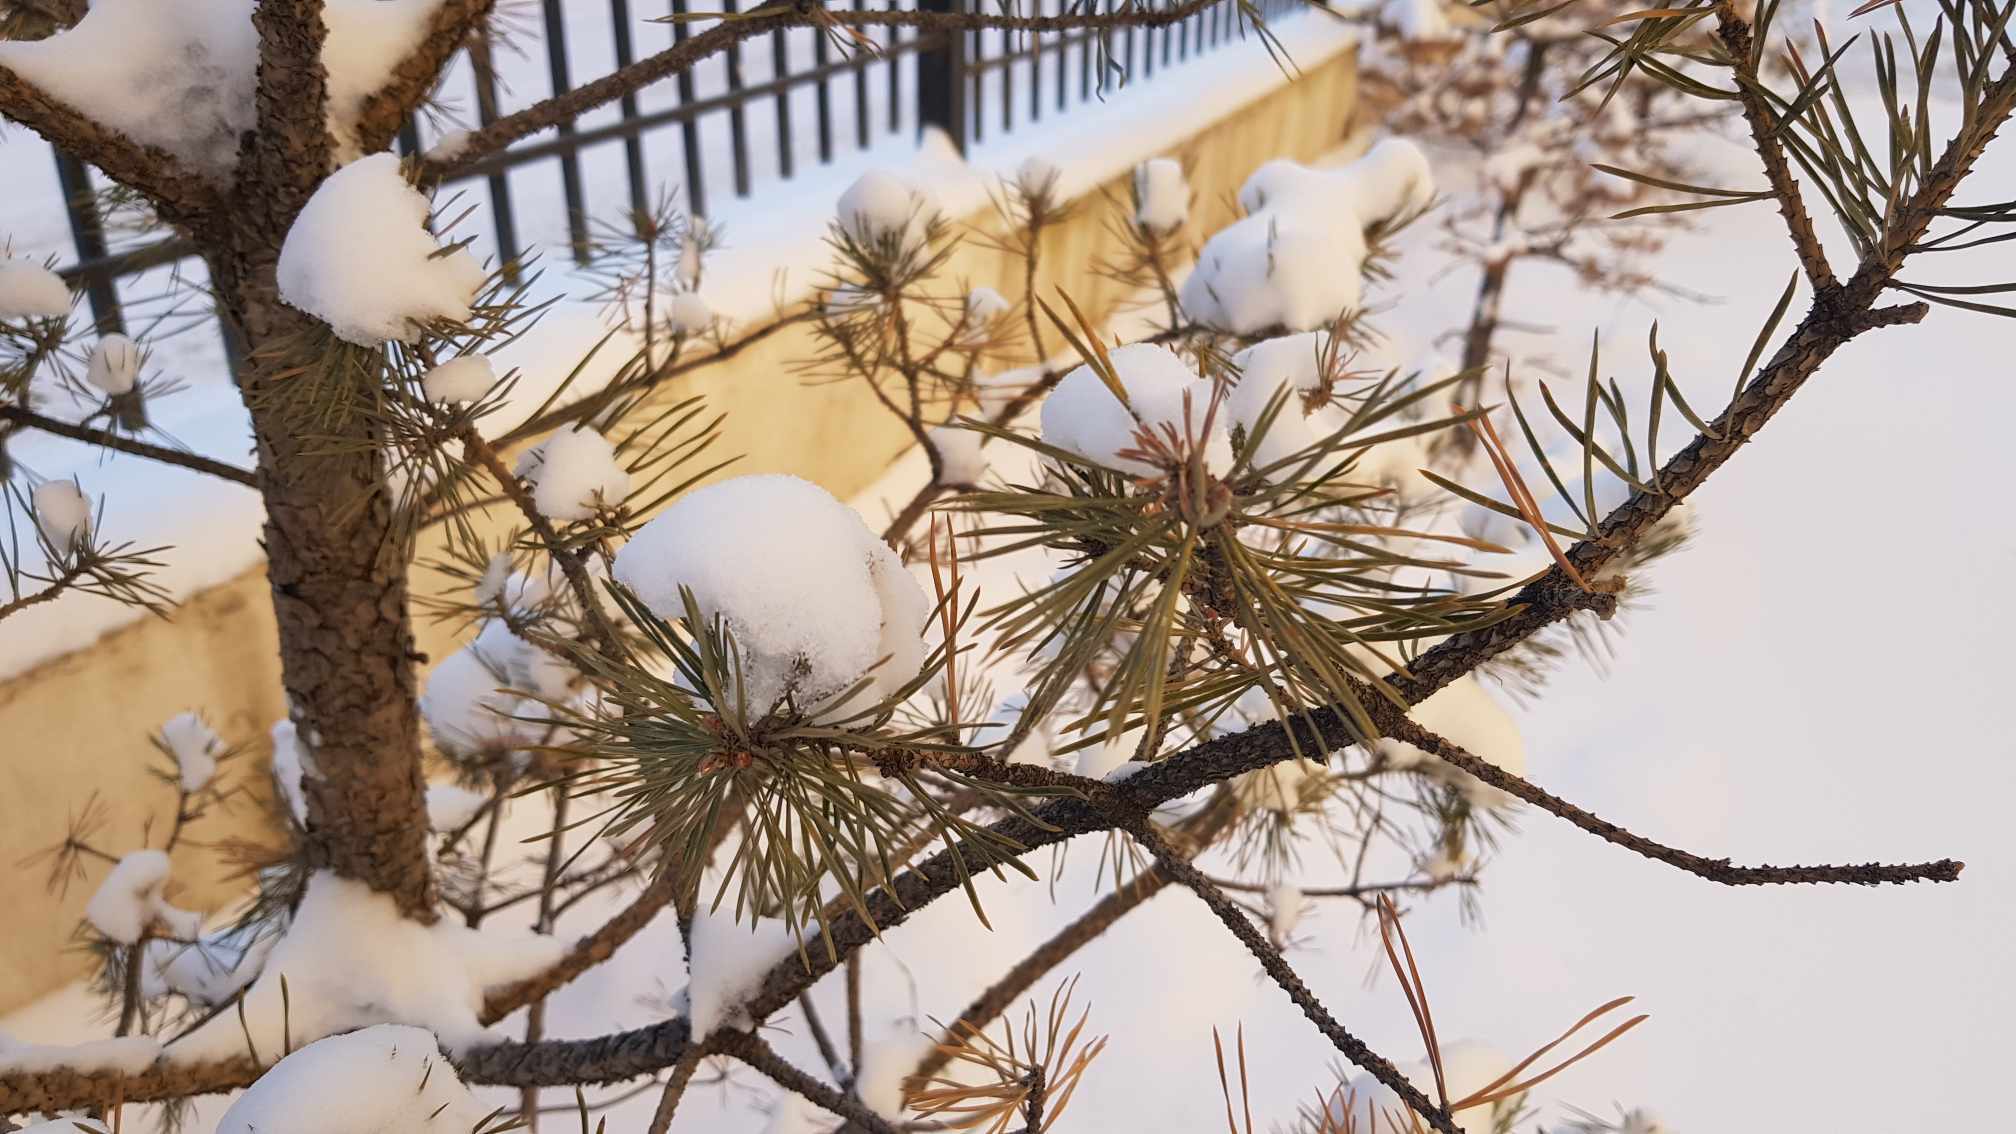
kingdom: Plantae
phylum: Tracheophyta
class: Pinopsida
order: Pinales
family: Pinaceae
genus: Pinus
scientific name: Pinus sylvestris
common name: Scots pine
